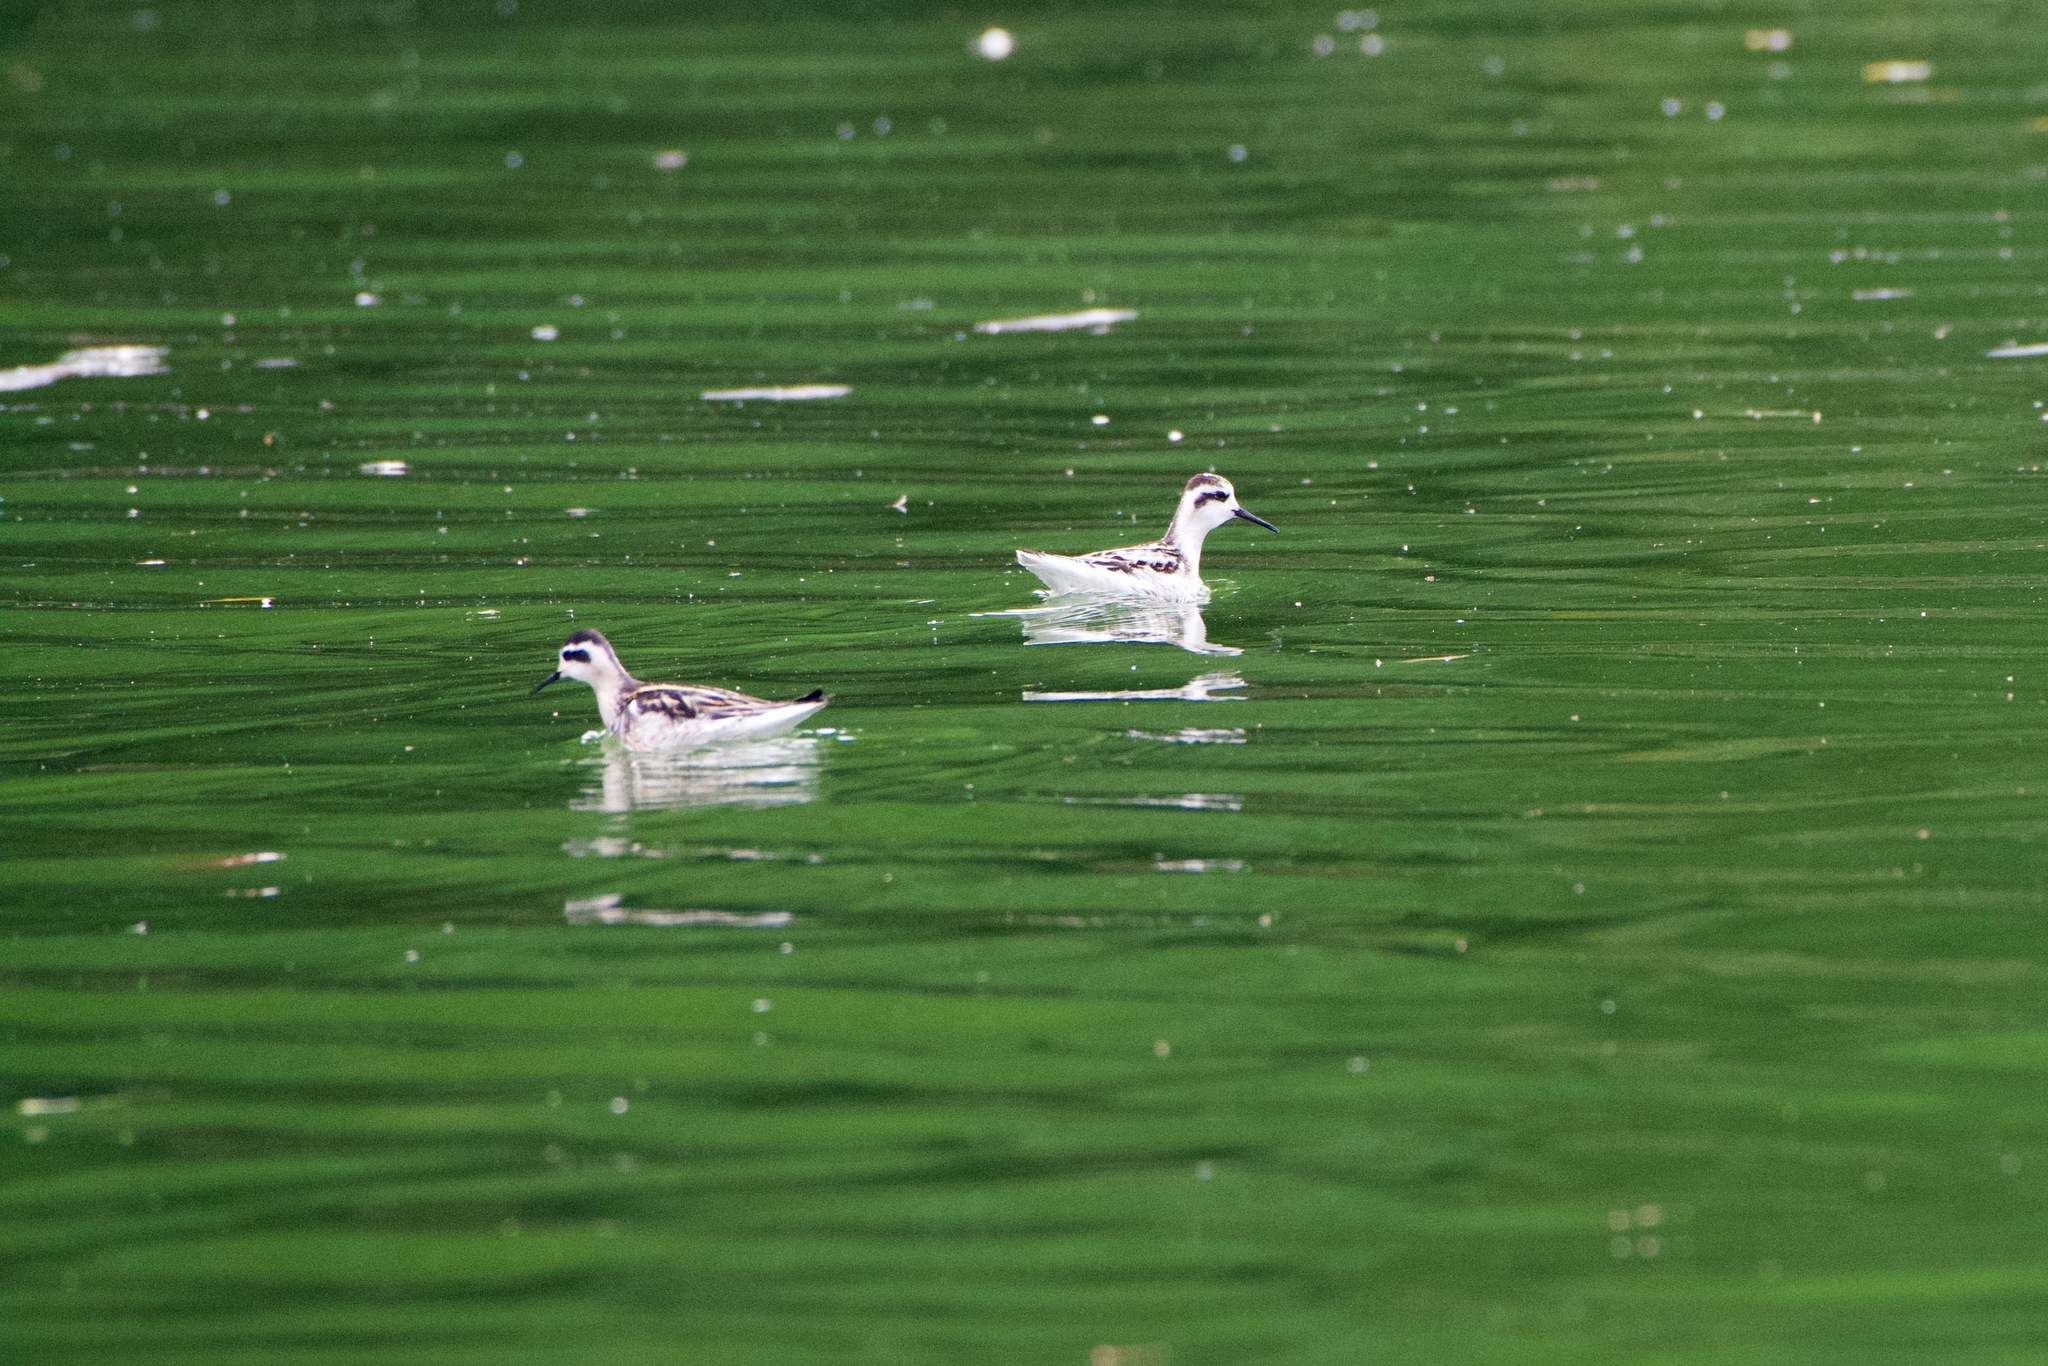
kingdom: Animalia
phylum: Chordata
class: Aves
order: Charadriiformes
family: Scolopacidae
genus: Phalaropus
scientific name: Phalaropus lobatus
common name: Red-necked phalarope
